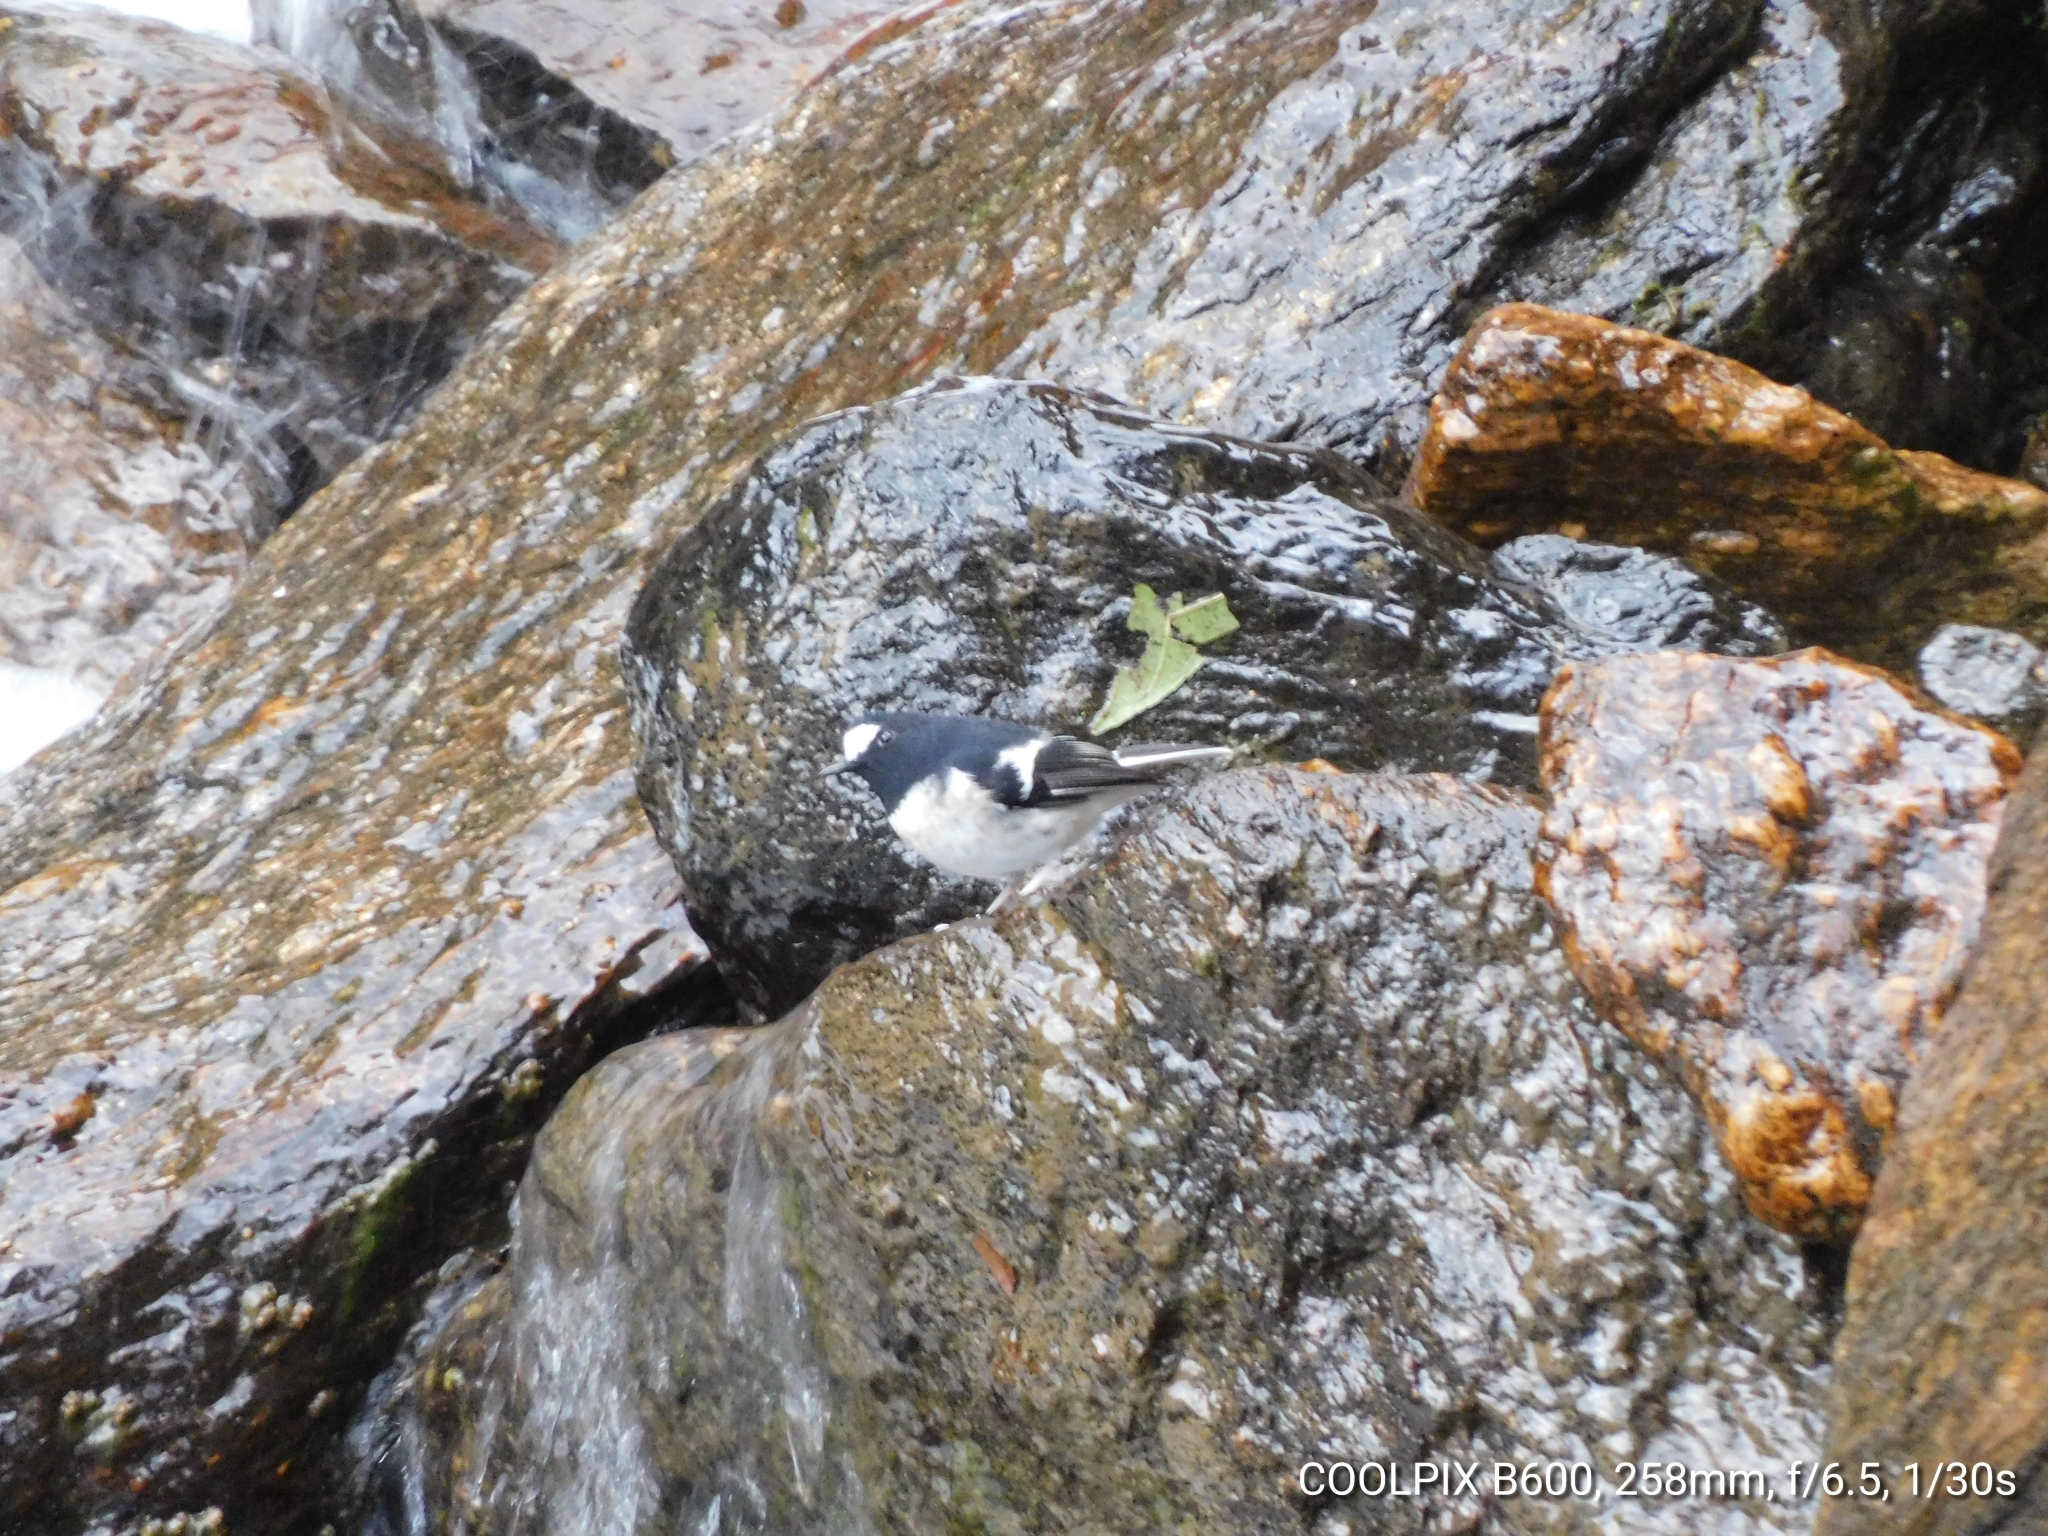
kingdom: Animalia
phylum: Chordata
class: Aves
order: Passeriformes
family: Muscicapidae
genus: Enicurus
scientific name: Enicurus scouleri
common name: Little forktail
